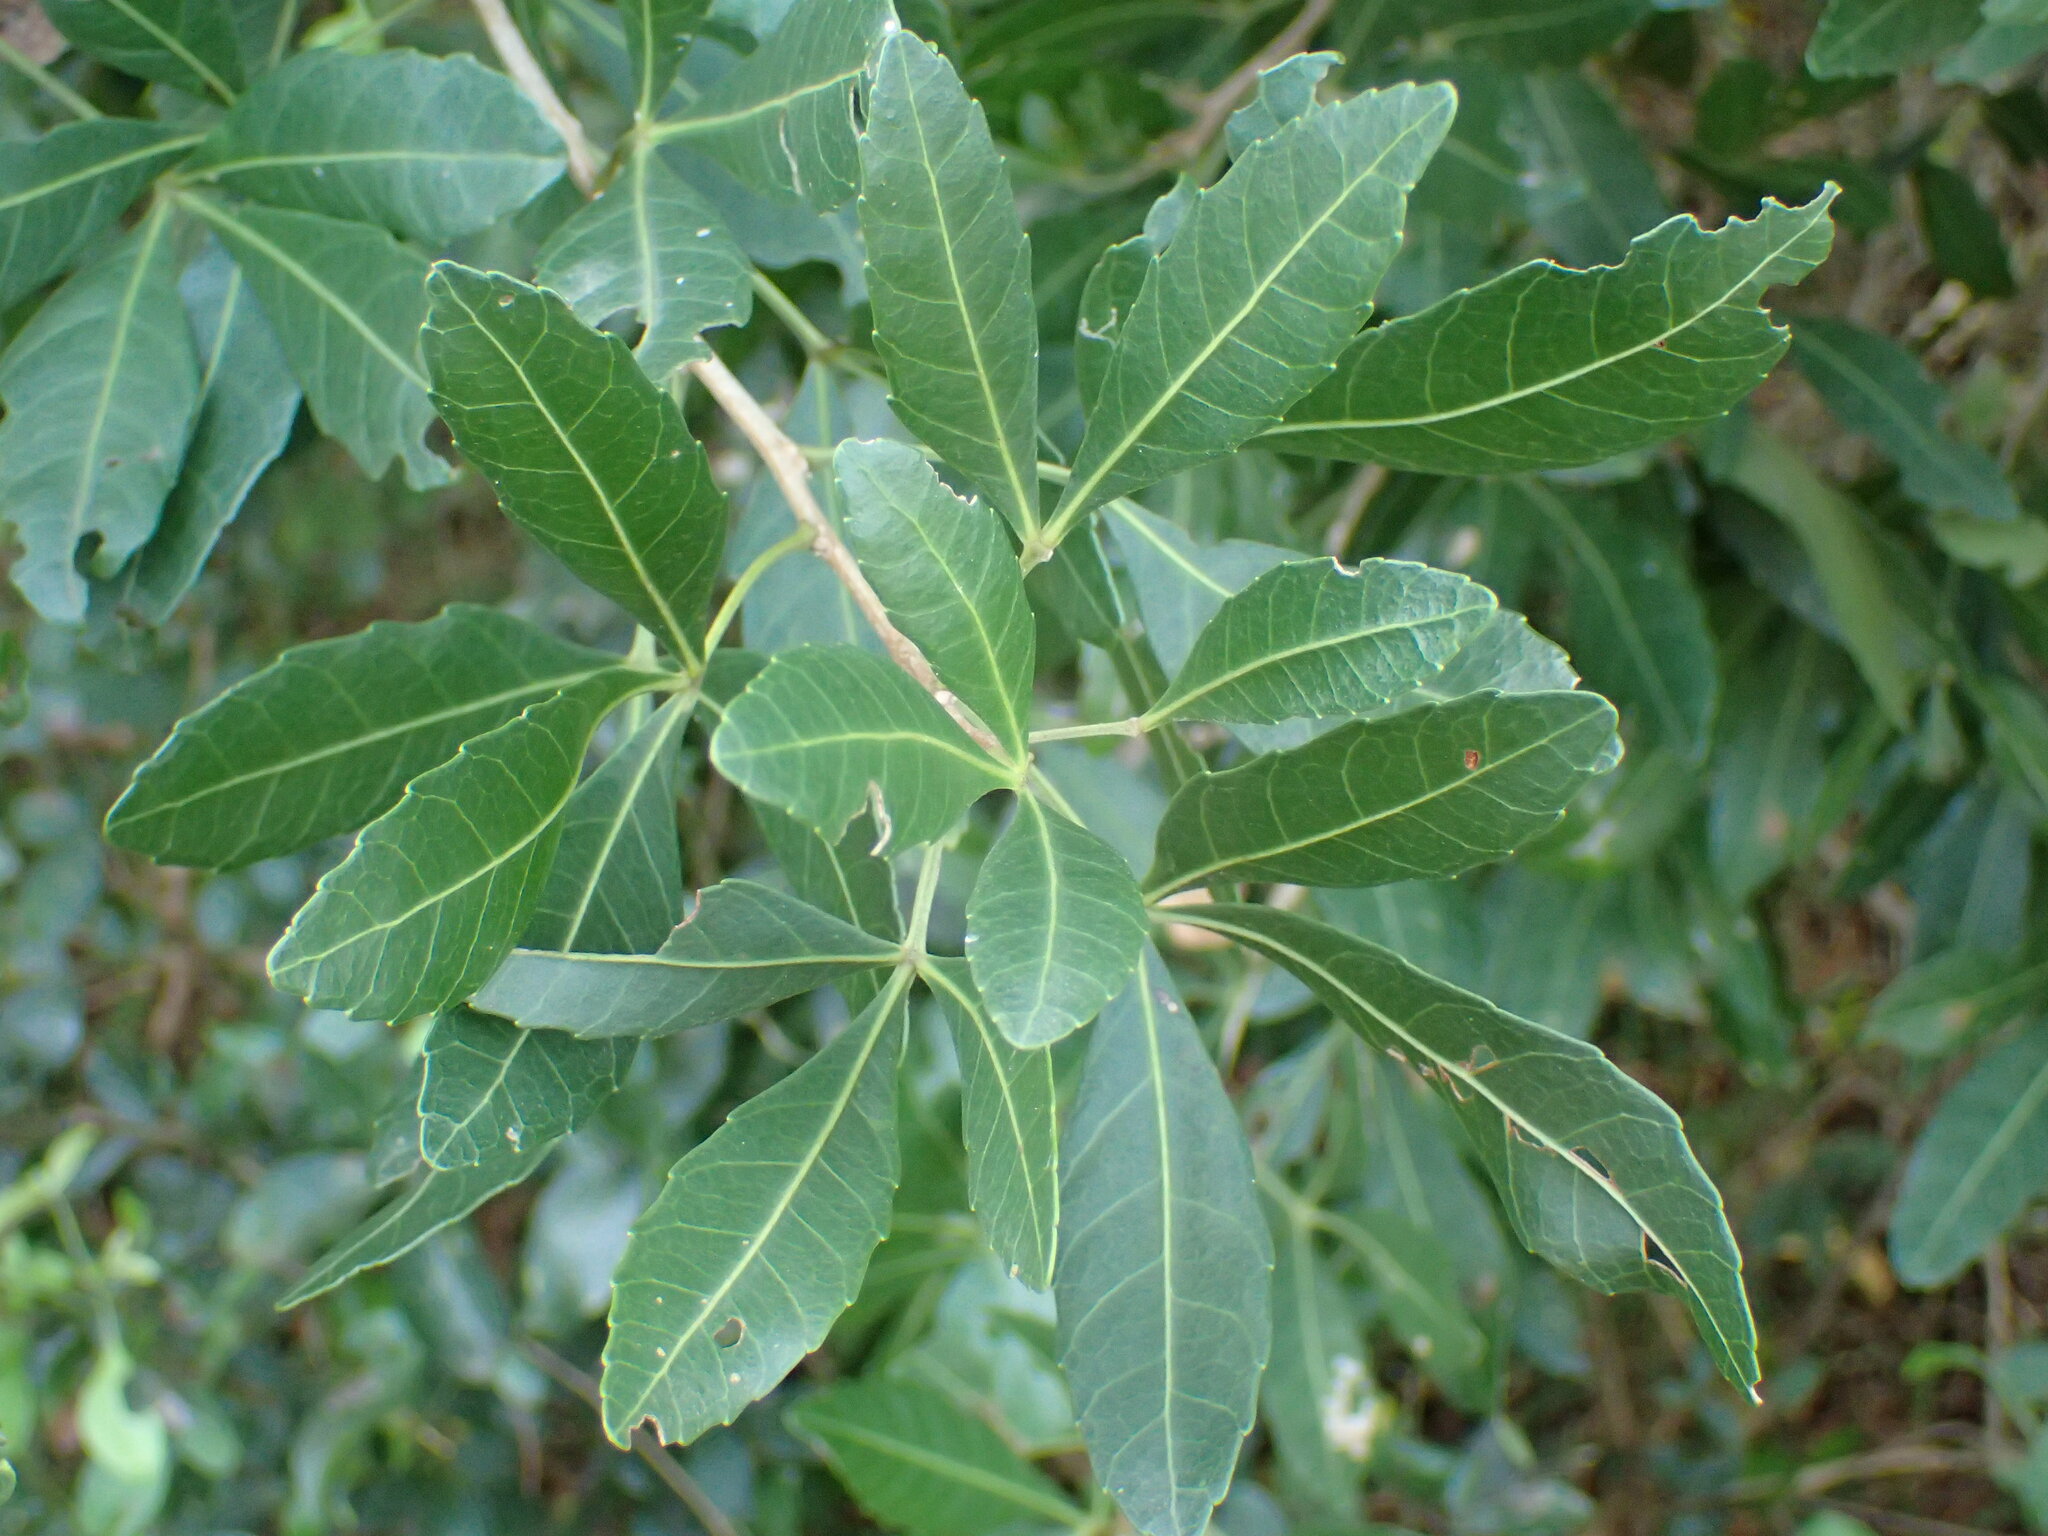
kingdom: Plantae
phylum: Tracheophyta
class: Magnoliopsida
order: Sapindales
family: Sapindaceae
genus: Allophylus
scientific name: Allophylus natalensis
